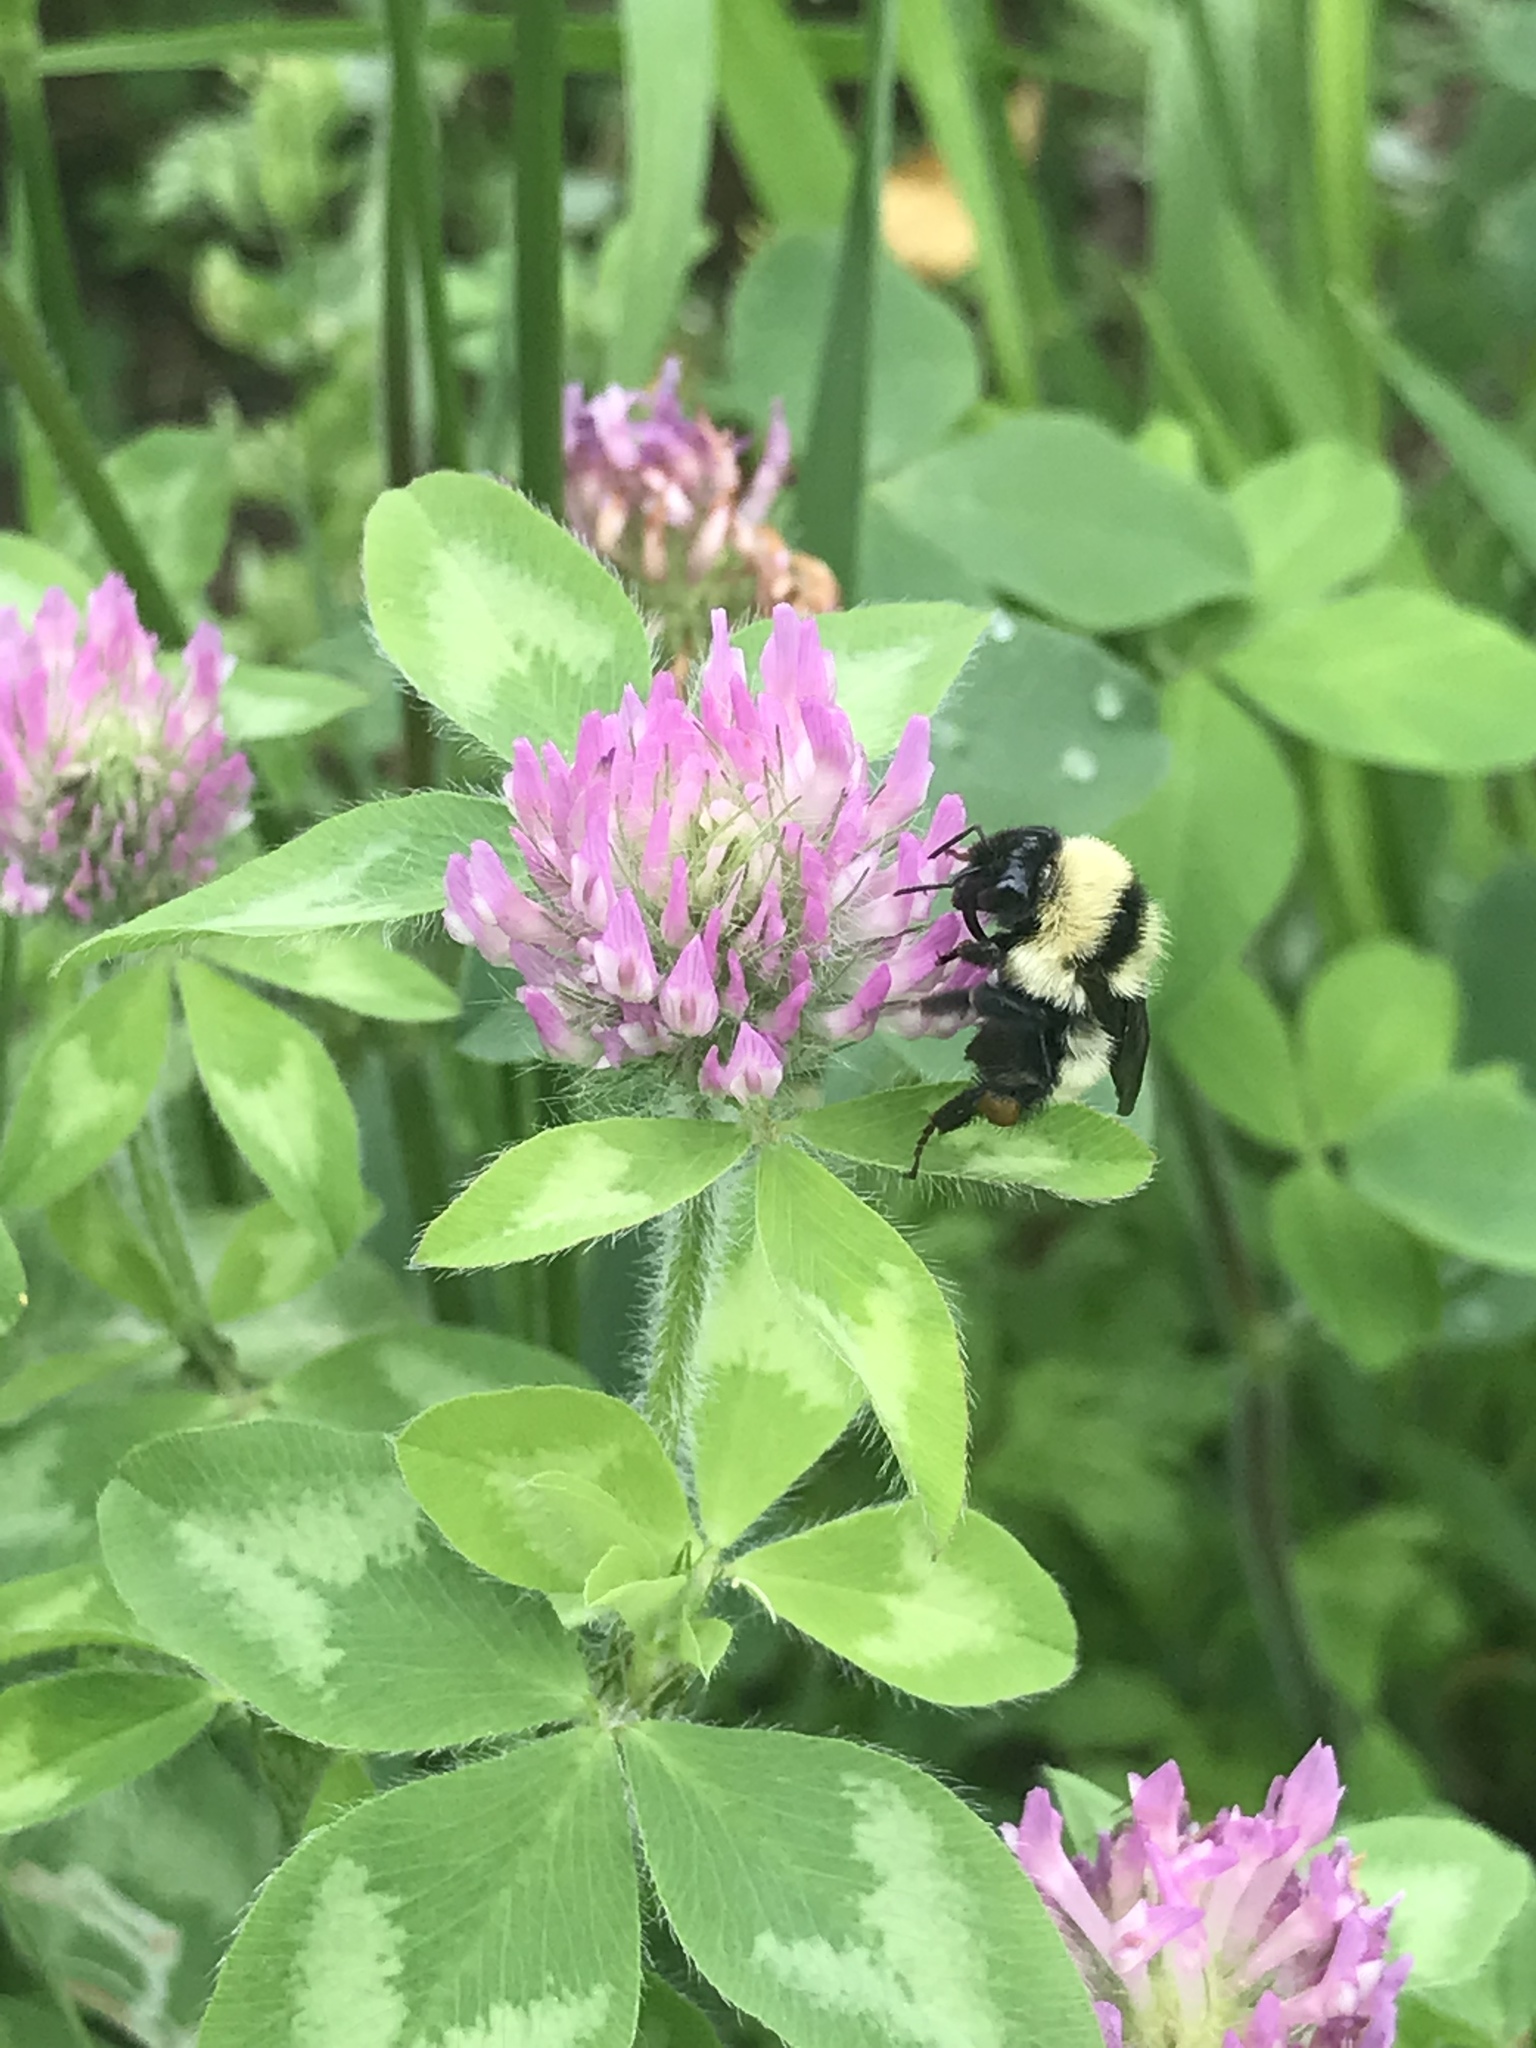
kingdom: Plantae
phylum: Tracheophyta
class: Magnoliopsida
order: Fabales
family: Fabaceae
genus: Trifolium
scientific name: Trifolium pratense
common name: Red clover
